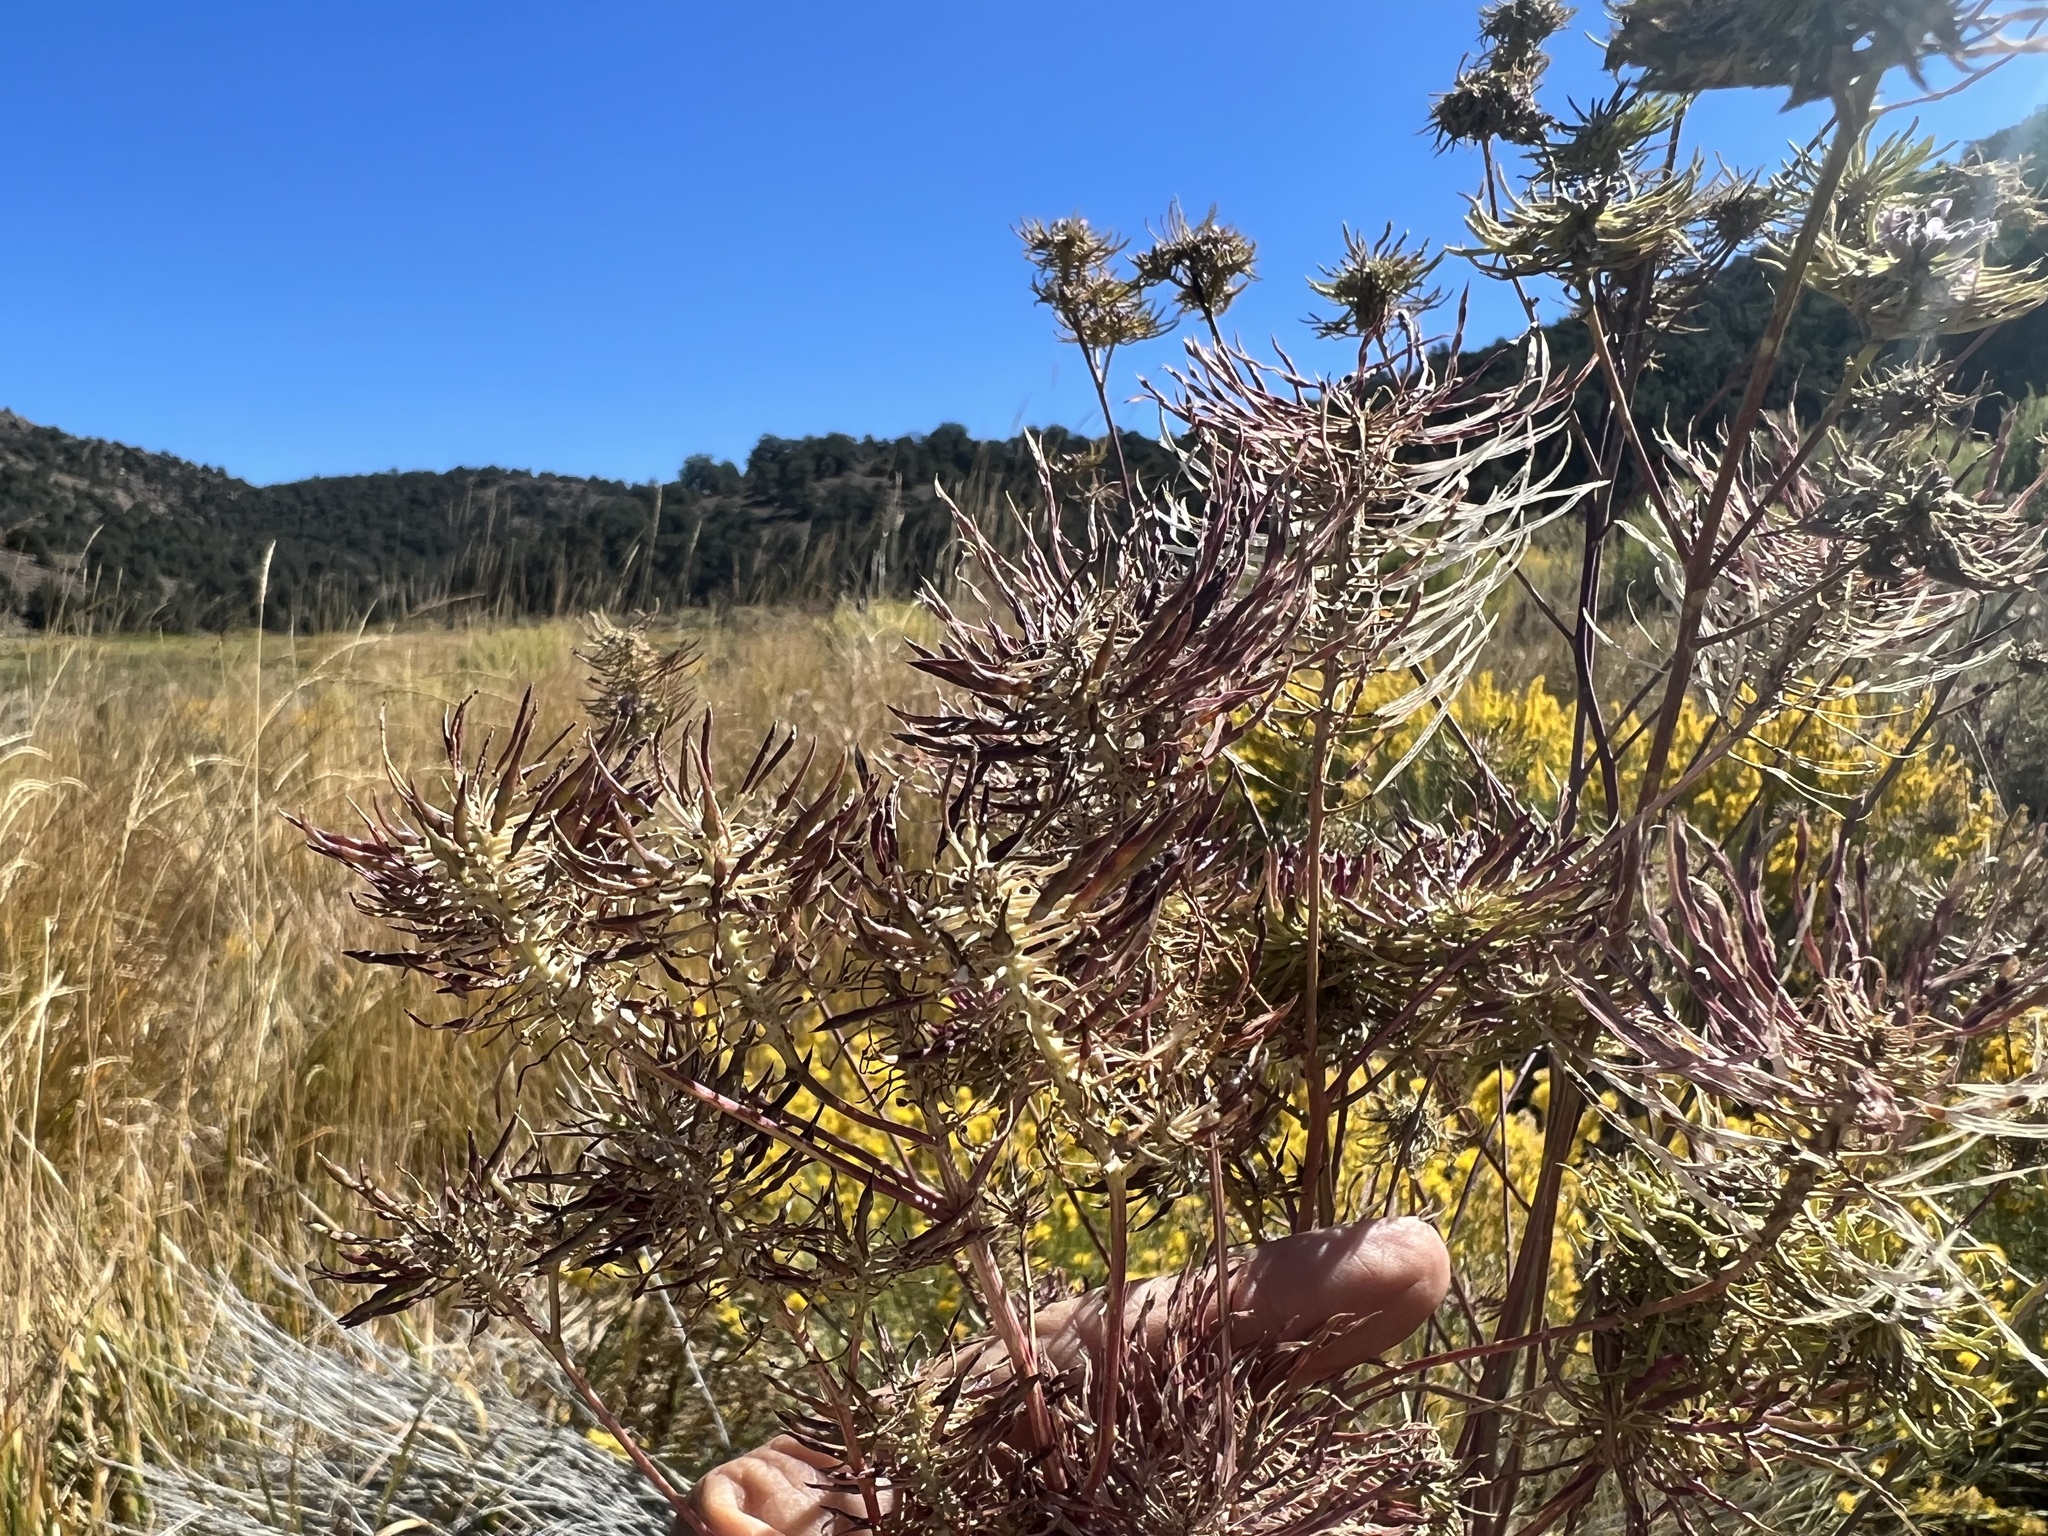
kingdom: Plantae
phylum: Tracheophyta
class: Magnoliopsida
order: Brassicales
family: Brassicaceae
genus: Thelypodium
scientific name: Thelypodium integrifolium
